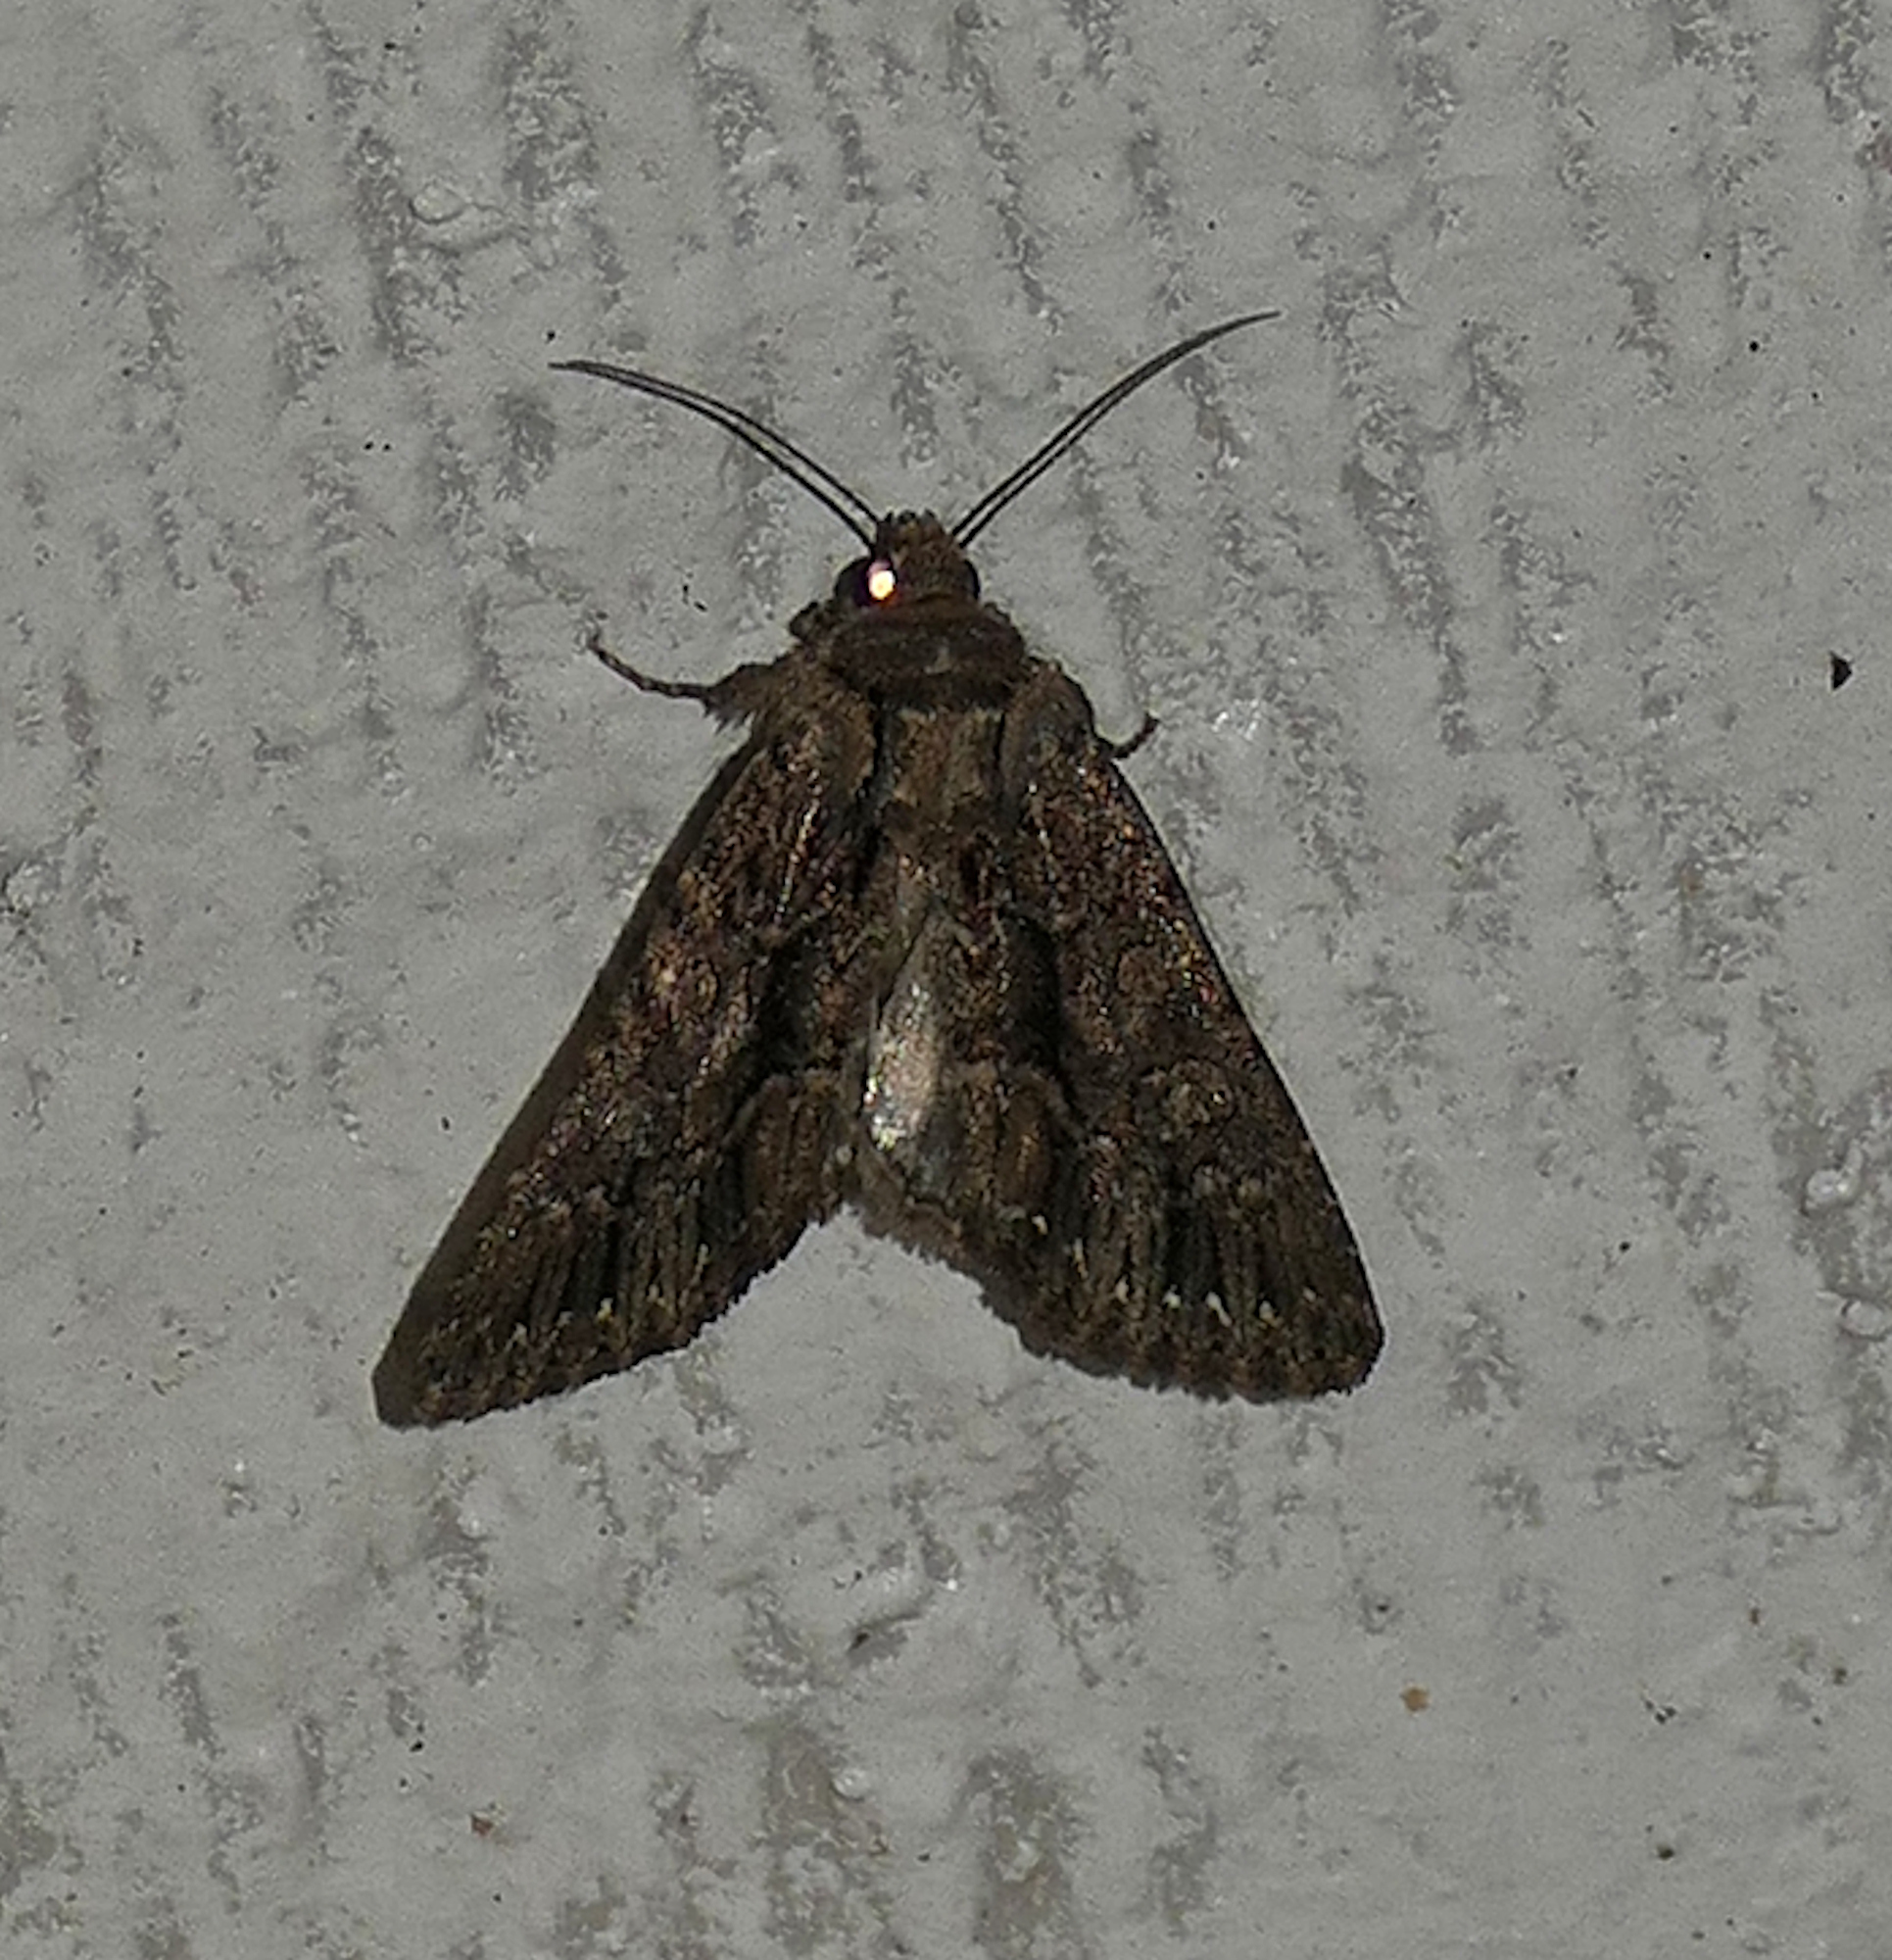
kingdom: Animalia
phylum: Arthropoda
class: Insecta
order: Lepidoptera
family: Noctuidae
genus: Apamea
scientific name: Apamea burgessi
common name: Burgess' apamea moth
